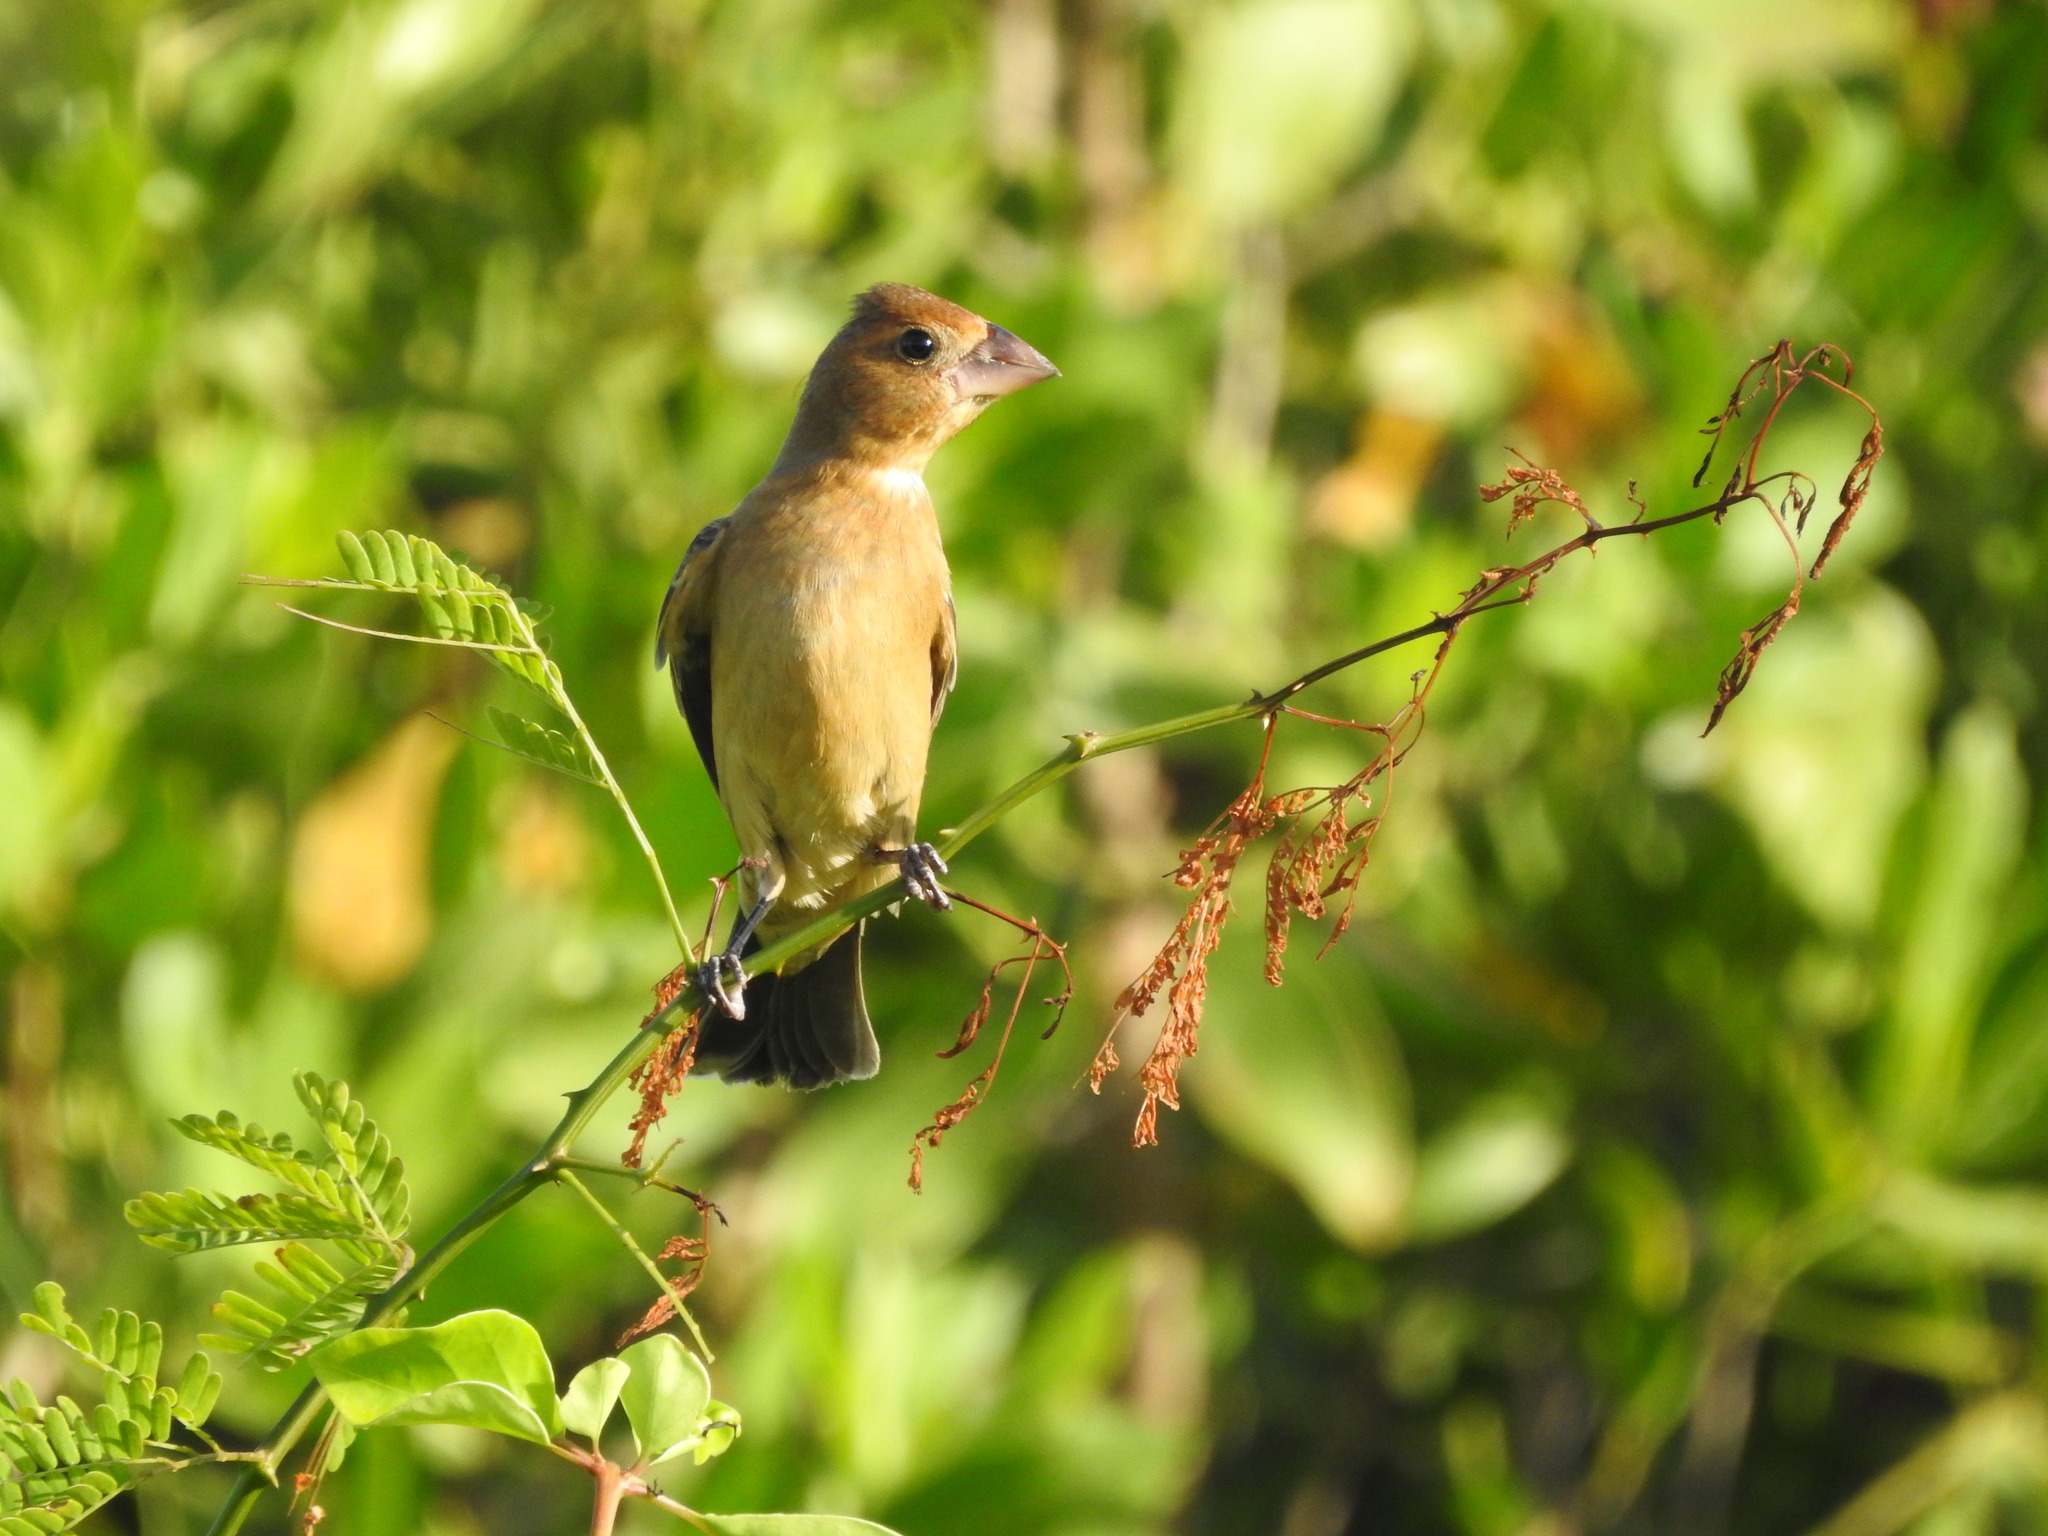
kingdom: Animalia
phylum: Chordata
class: Aves
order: Passeriformes
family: Cardinalidae
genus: Passerina
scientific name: Passerina caerulea
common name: Blue grosbeak
